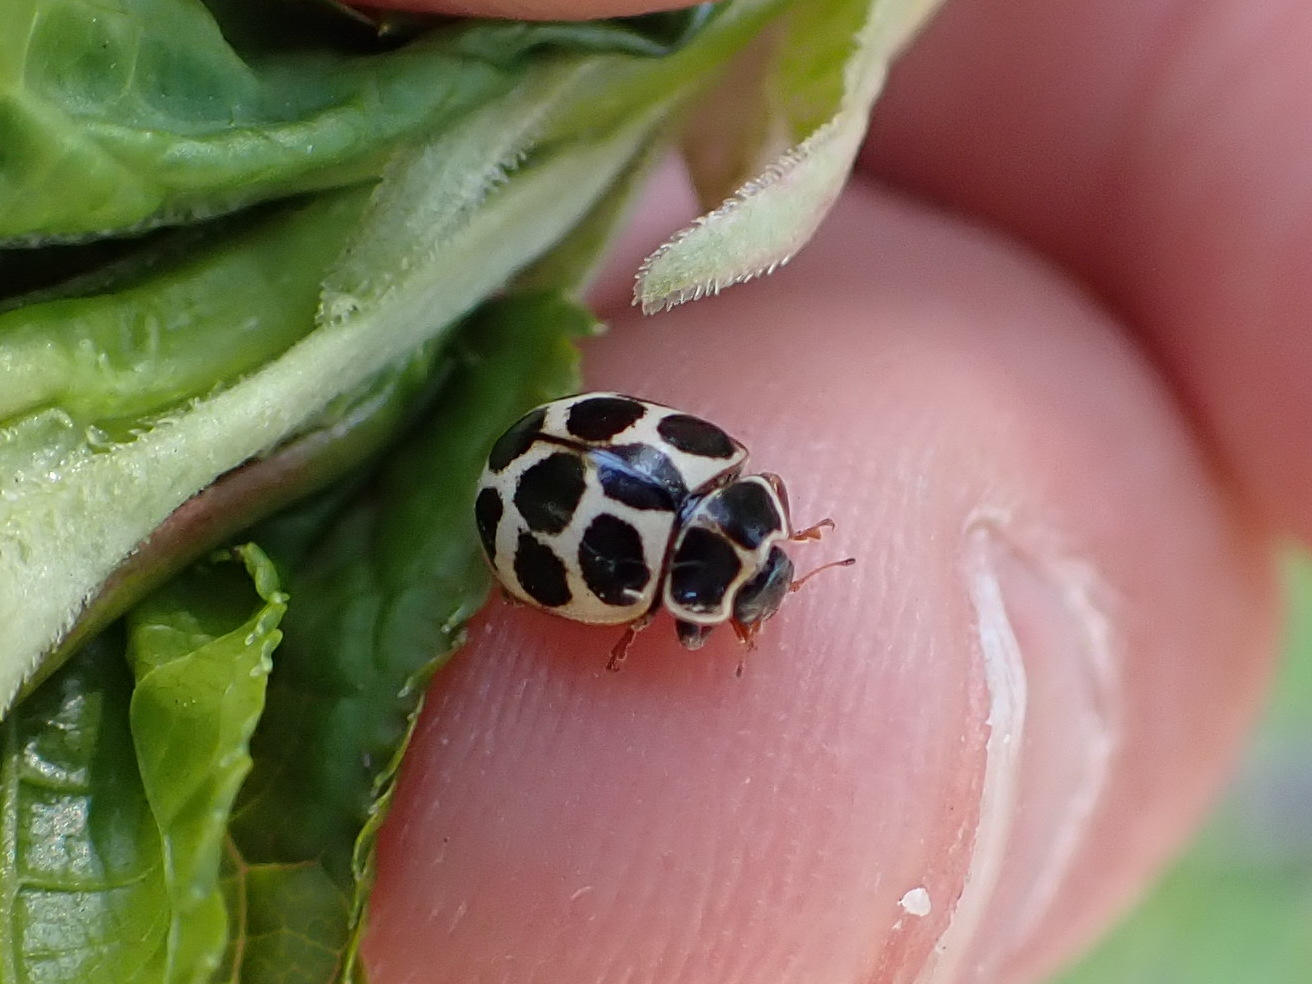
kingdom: Animalia
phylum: Arthropoda
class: Insecta
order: Coleoptera
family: Coccinellidae
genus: Calvia
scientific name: Calvia quatuordecimguttata
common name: Cream-spot ladybird
